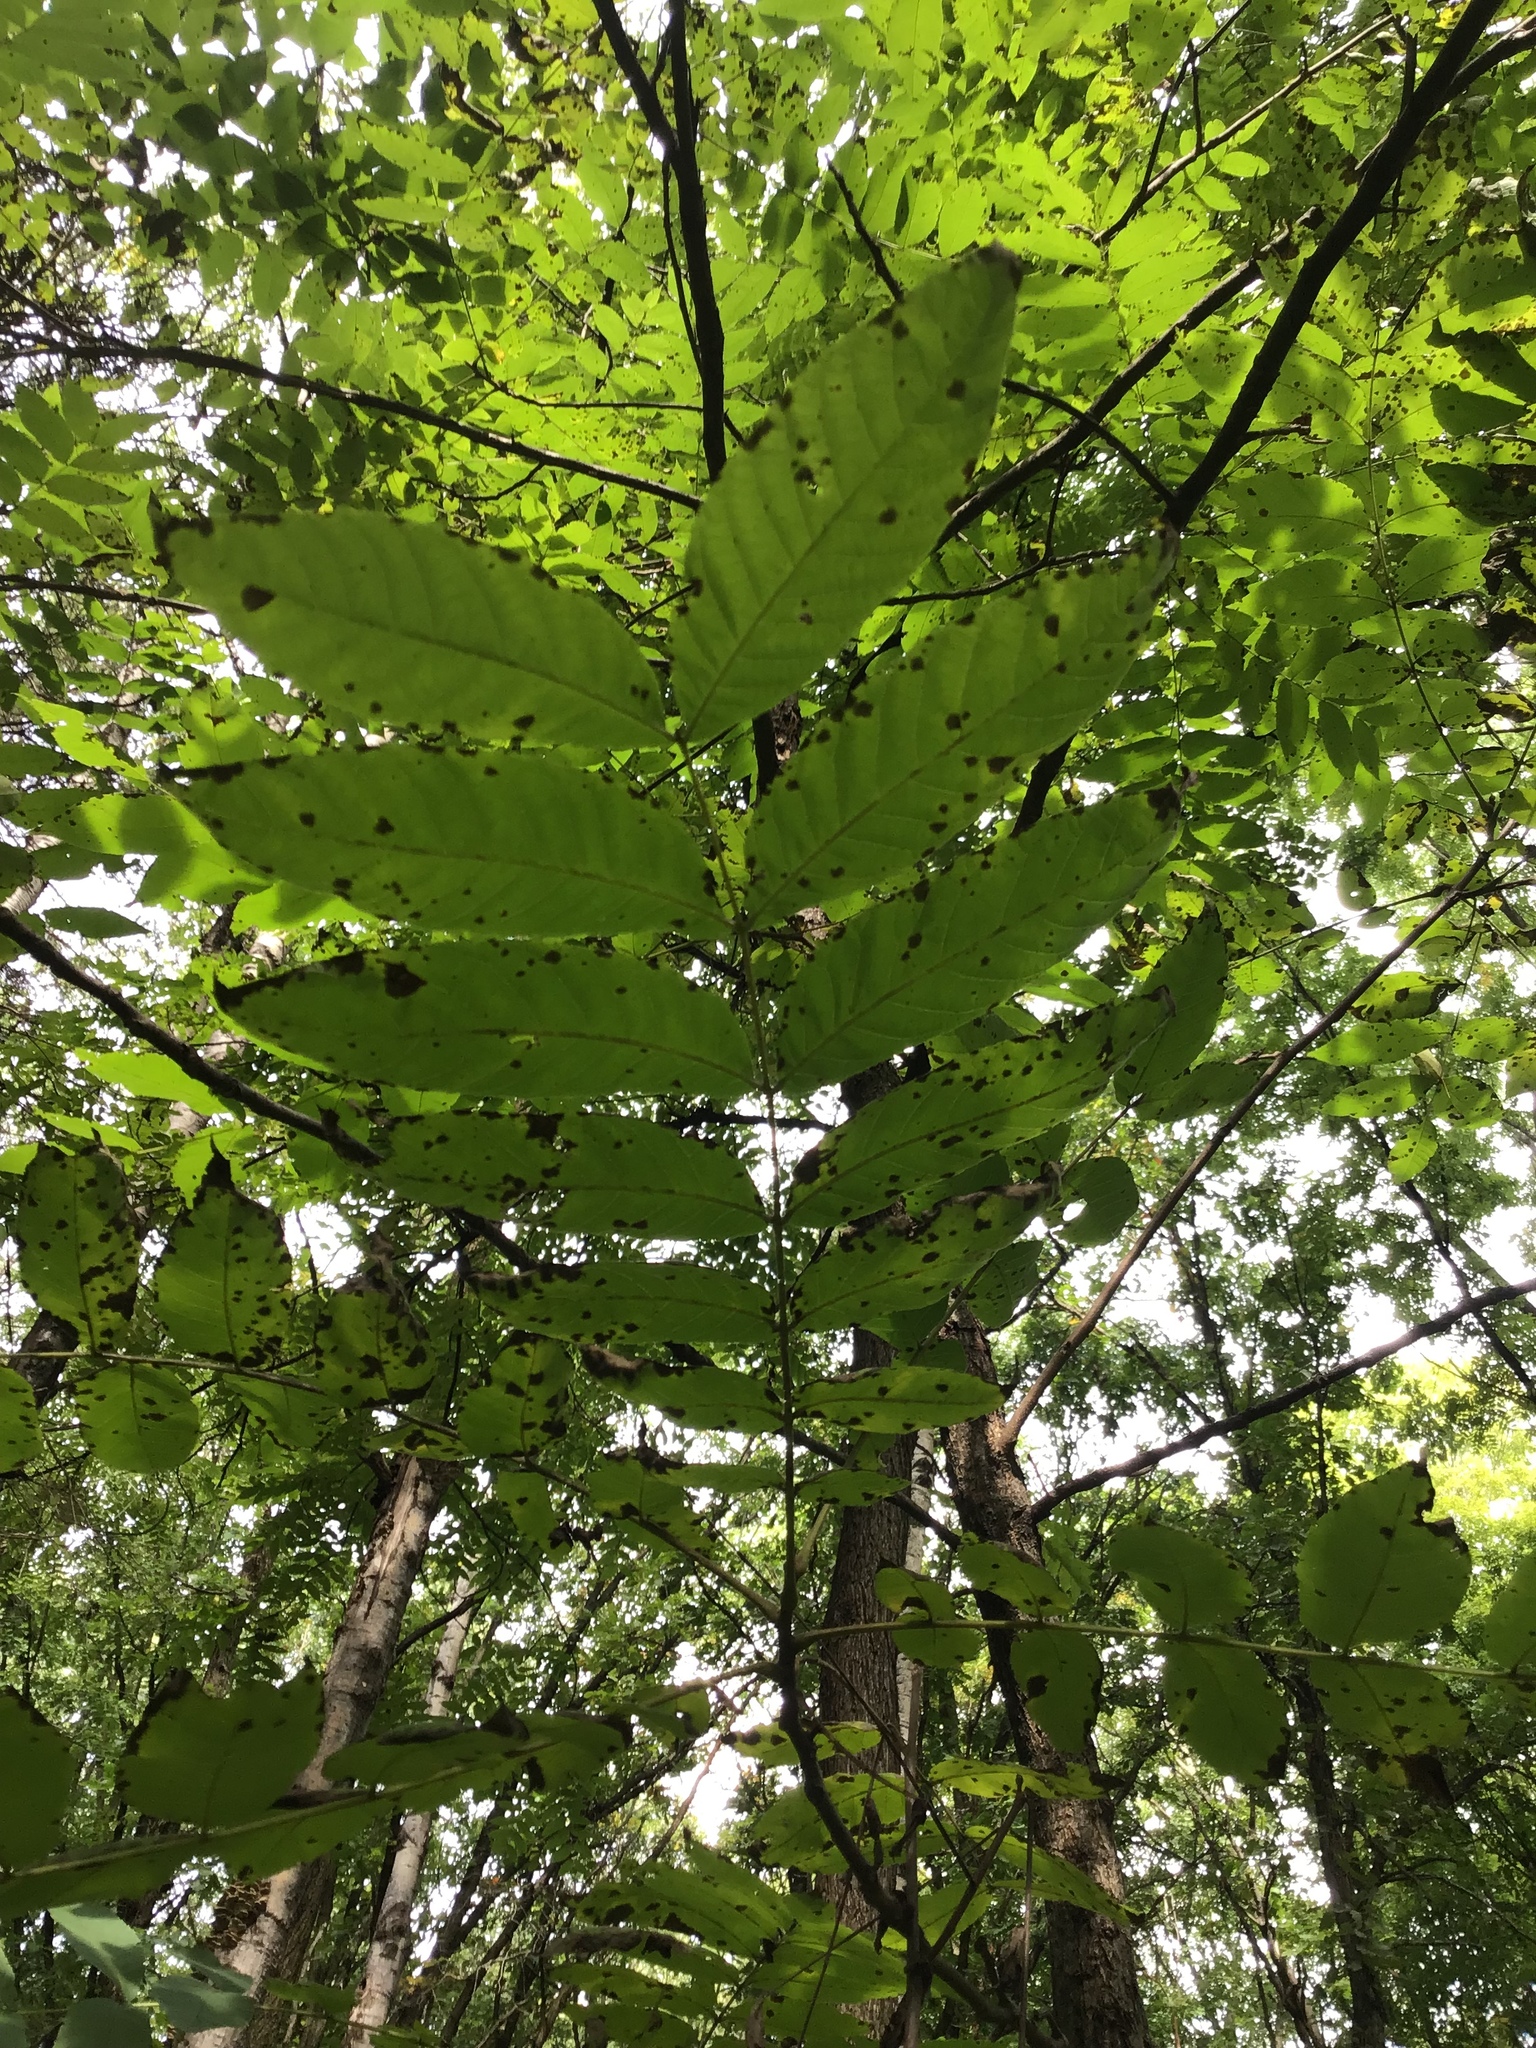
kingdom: Plantae
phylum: Tracheophyta
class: Magnoliopsida
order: Fagales
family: Juglandaceae
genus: Juglans
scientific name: Juglans nigra
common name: Black walnut
